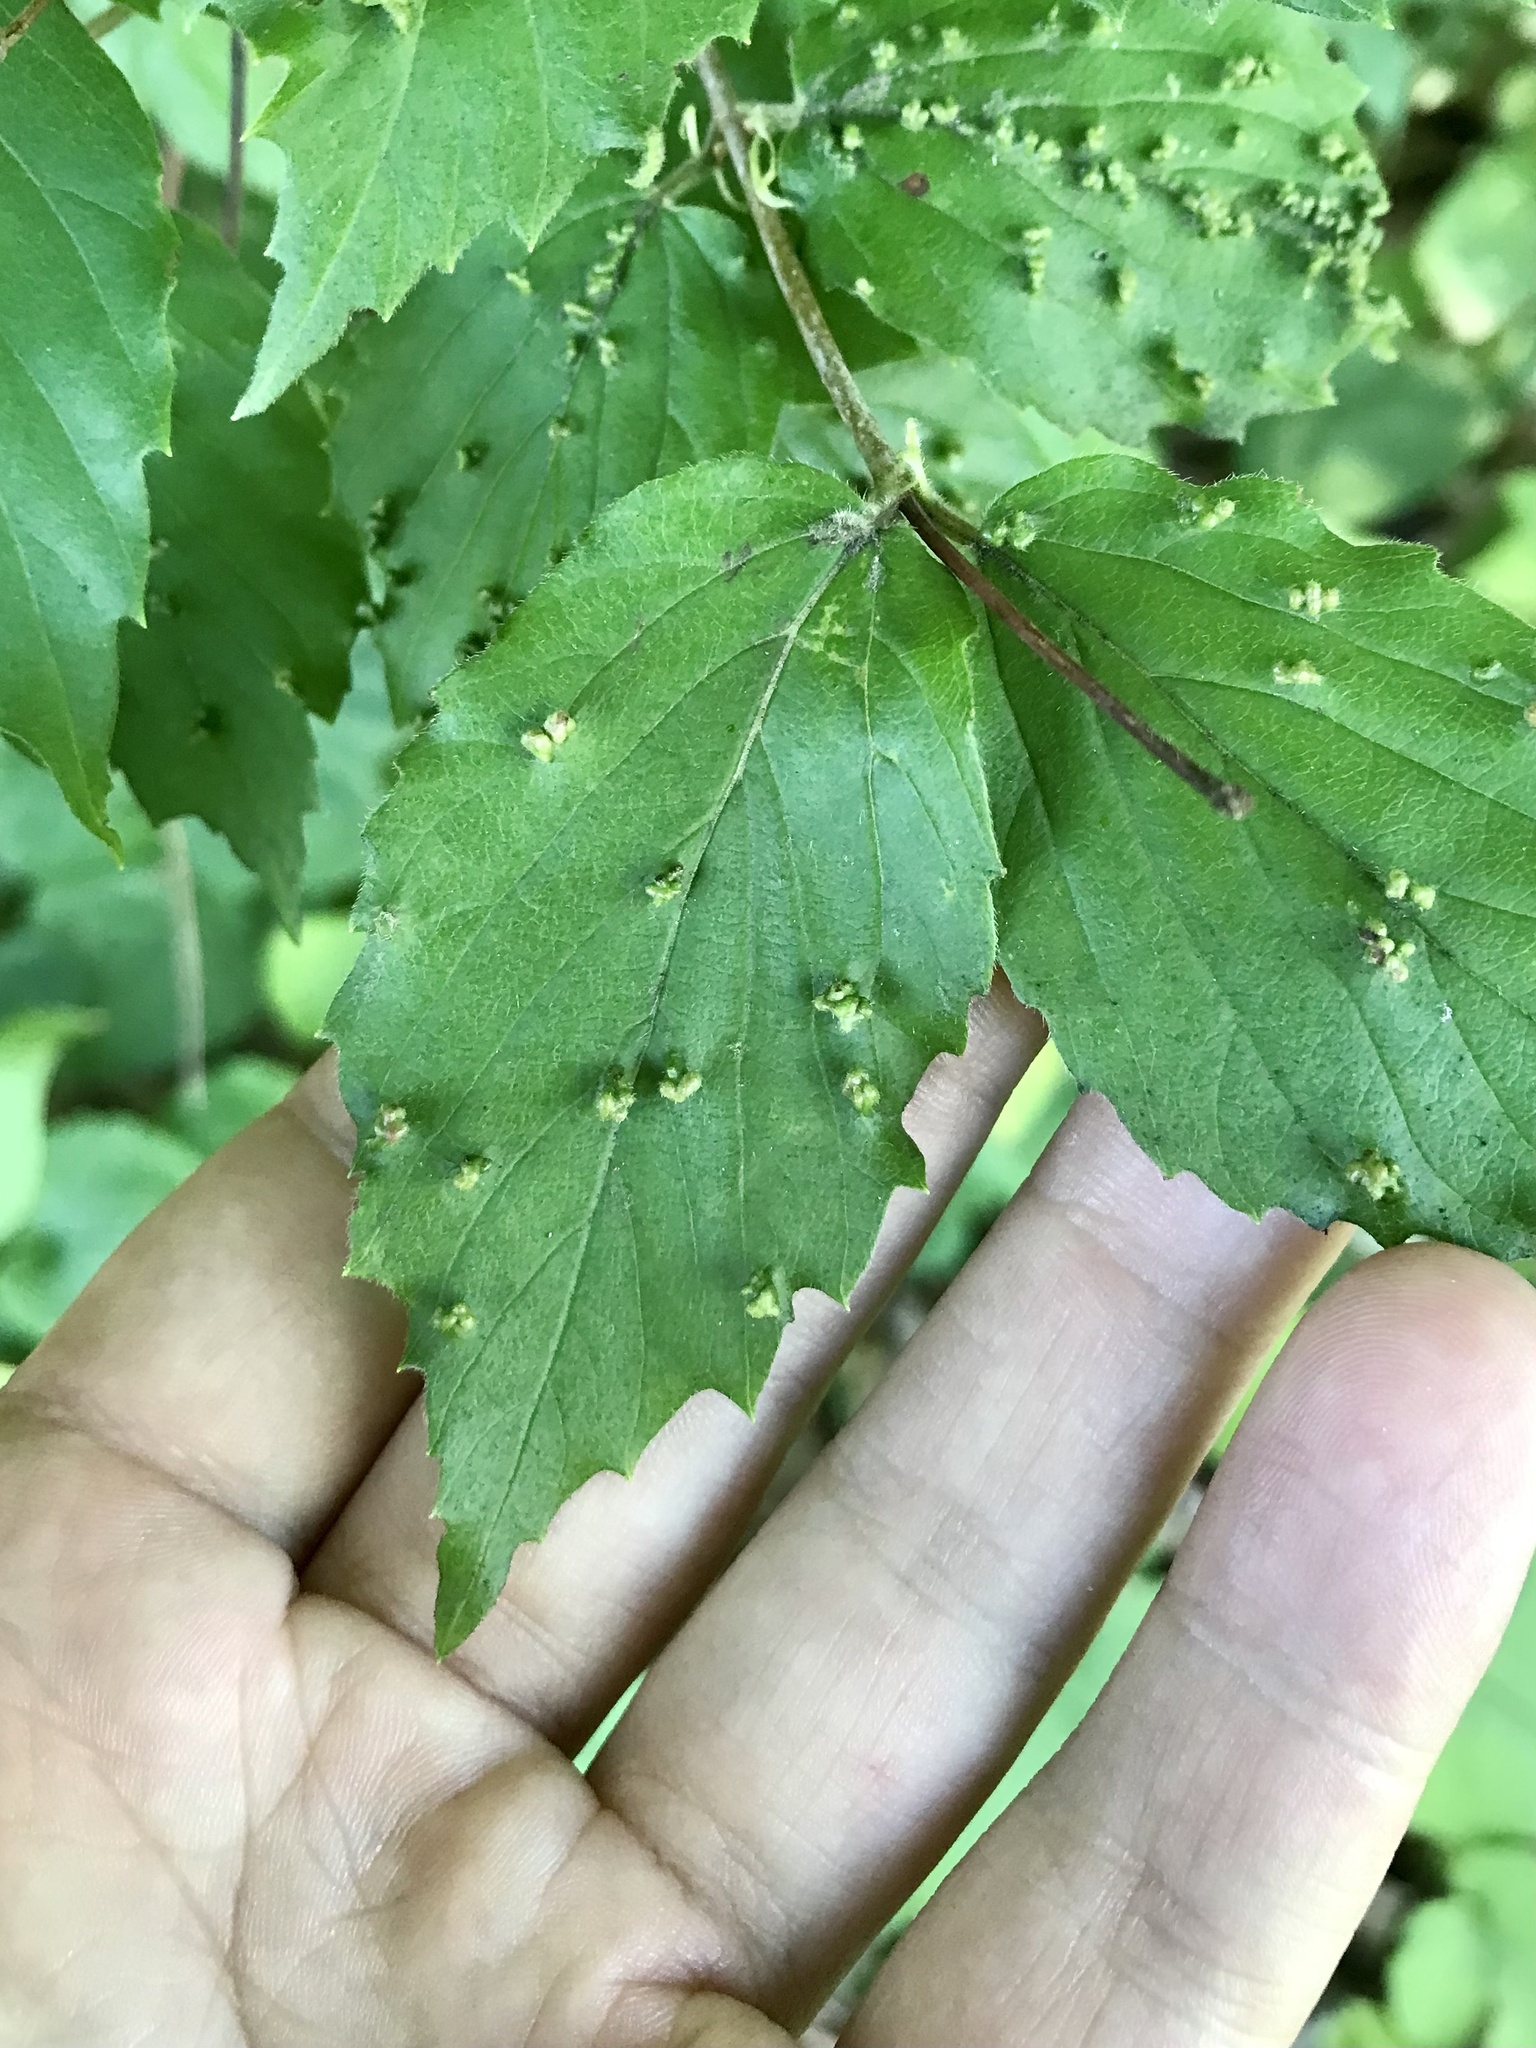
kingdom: Animalia
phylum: Arthropoda
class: Arachnida
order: Trombidiformes
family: Eriophyidae
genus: Eriophyes
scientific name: Eriophyes
